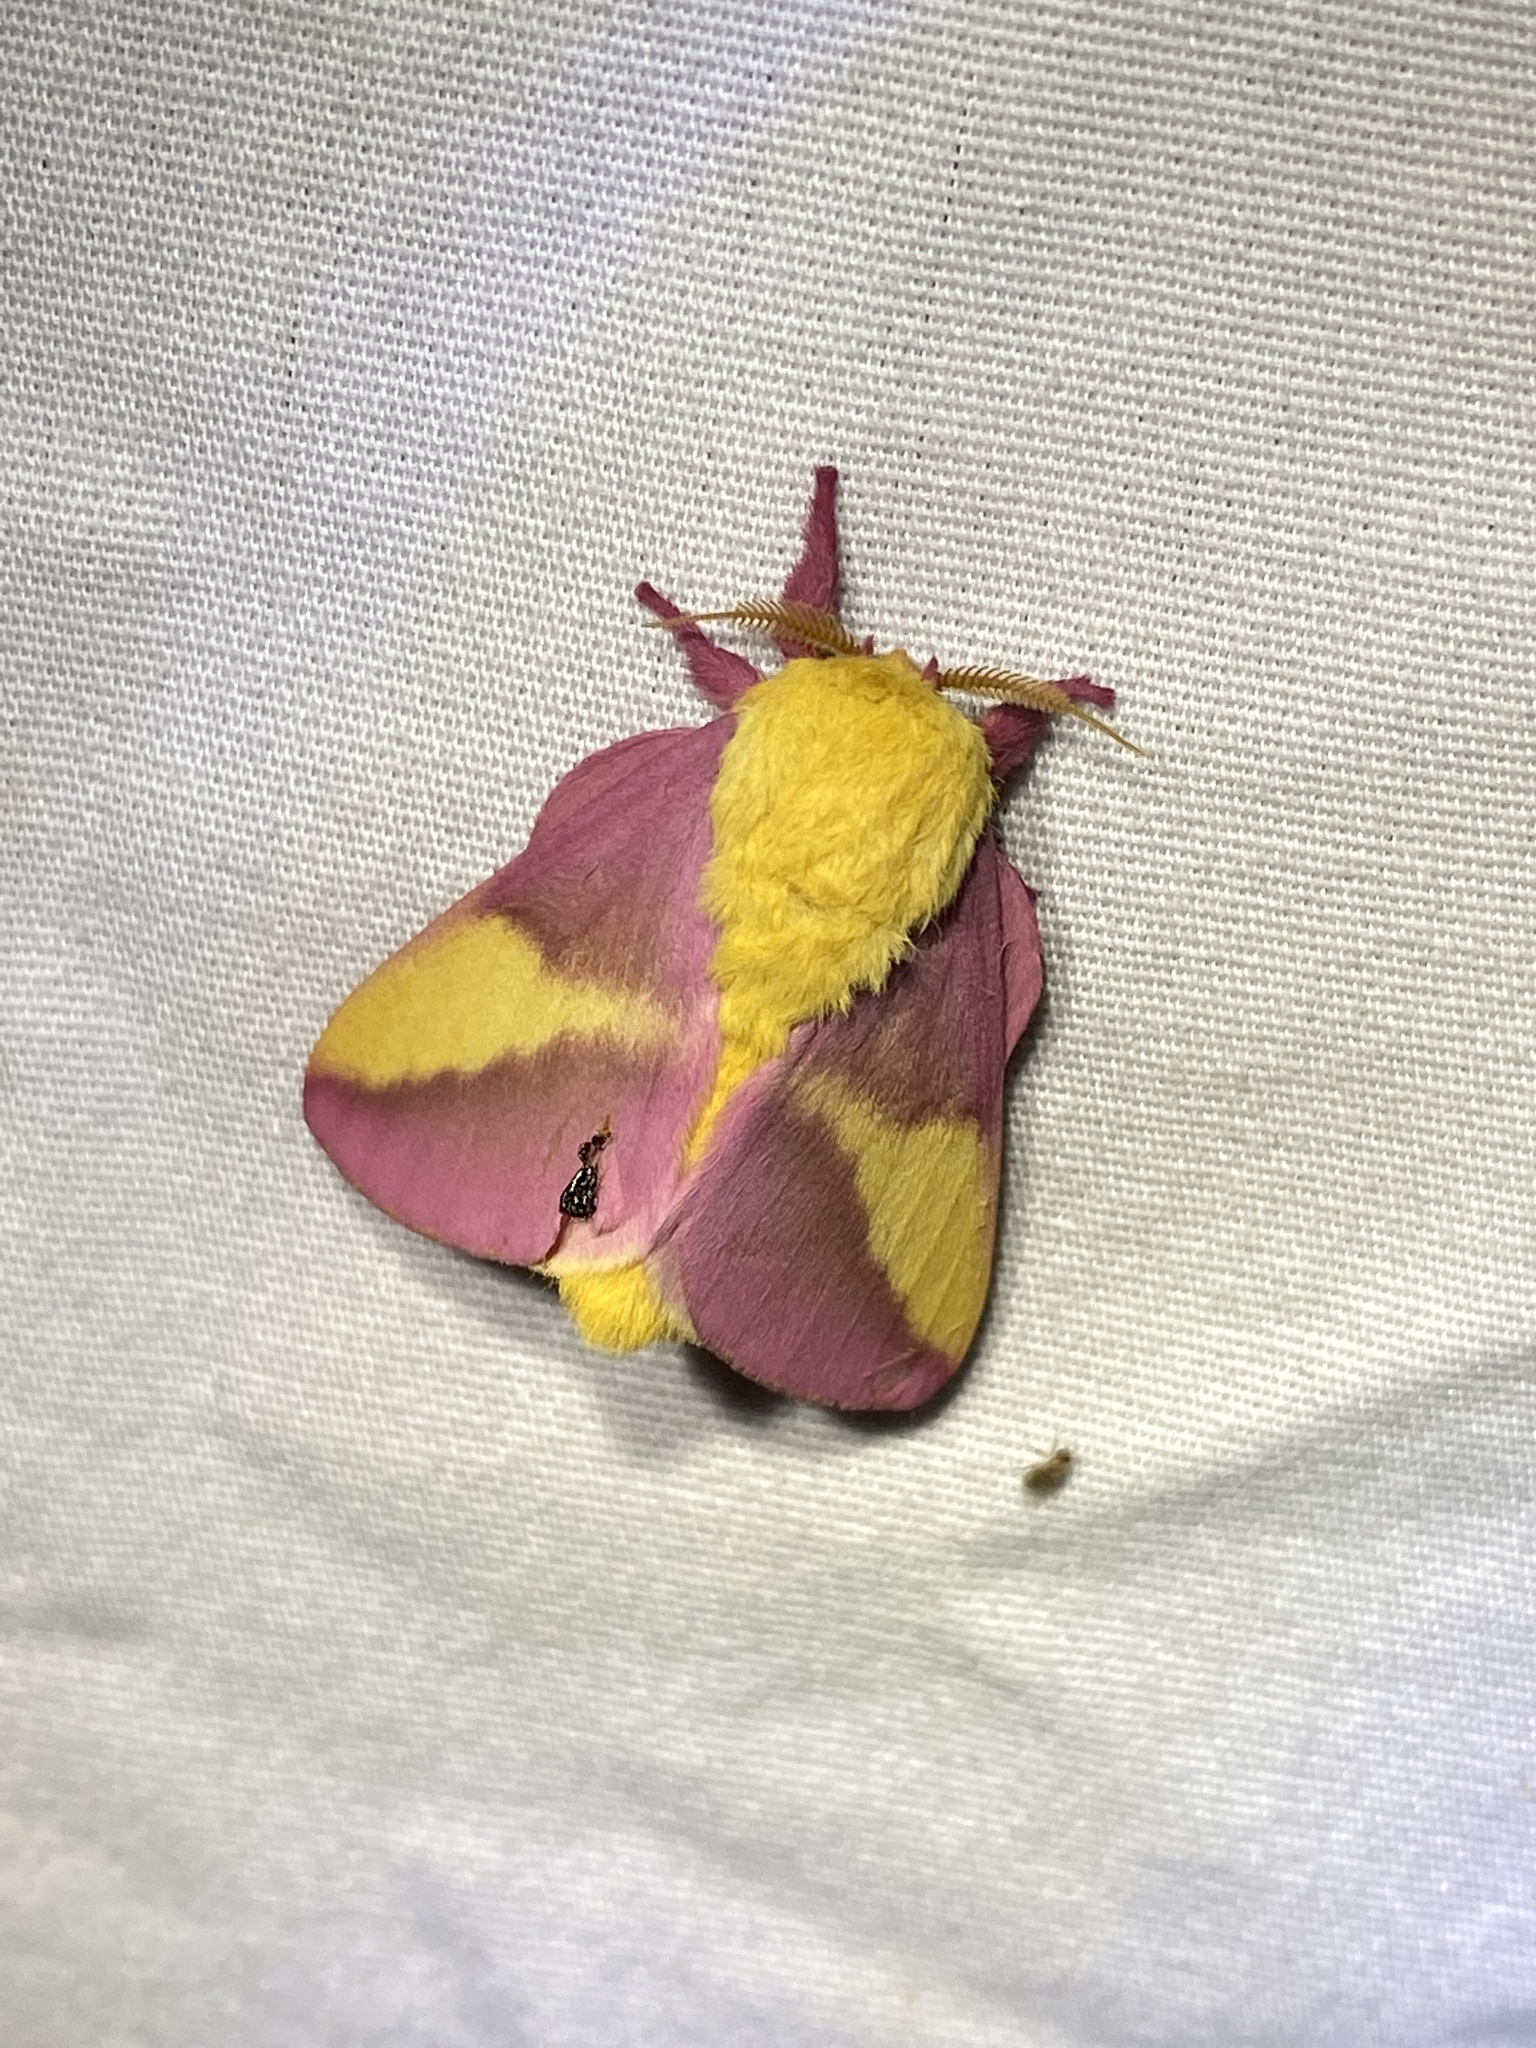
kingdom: Animalia
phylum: Arthropoda
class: Insecta
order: Lepidoptera
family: Saturniidae
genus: Dryocampa
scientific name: Dryocampa rubicunda
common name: Rosy maple moth
